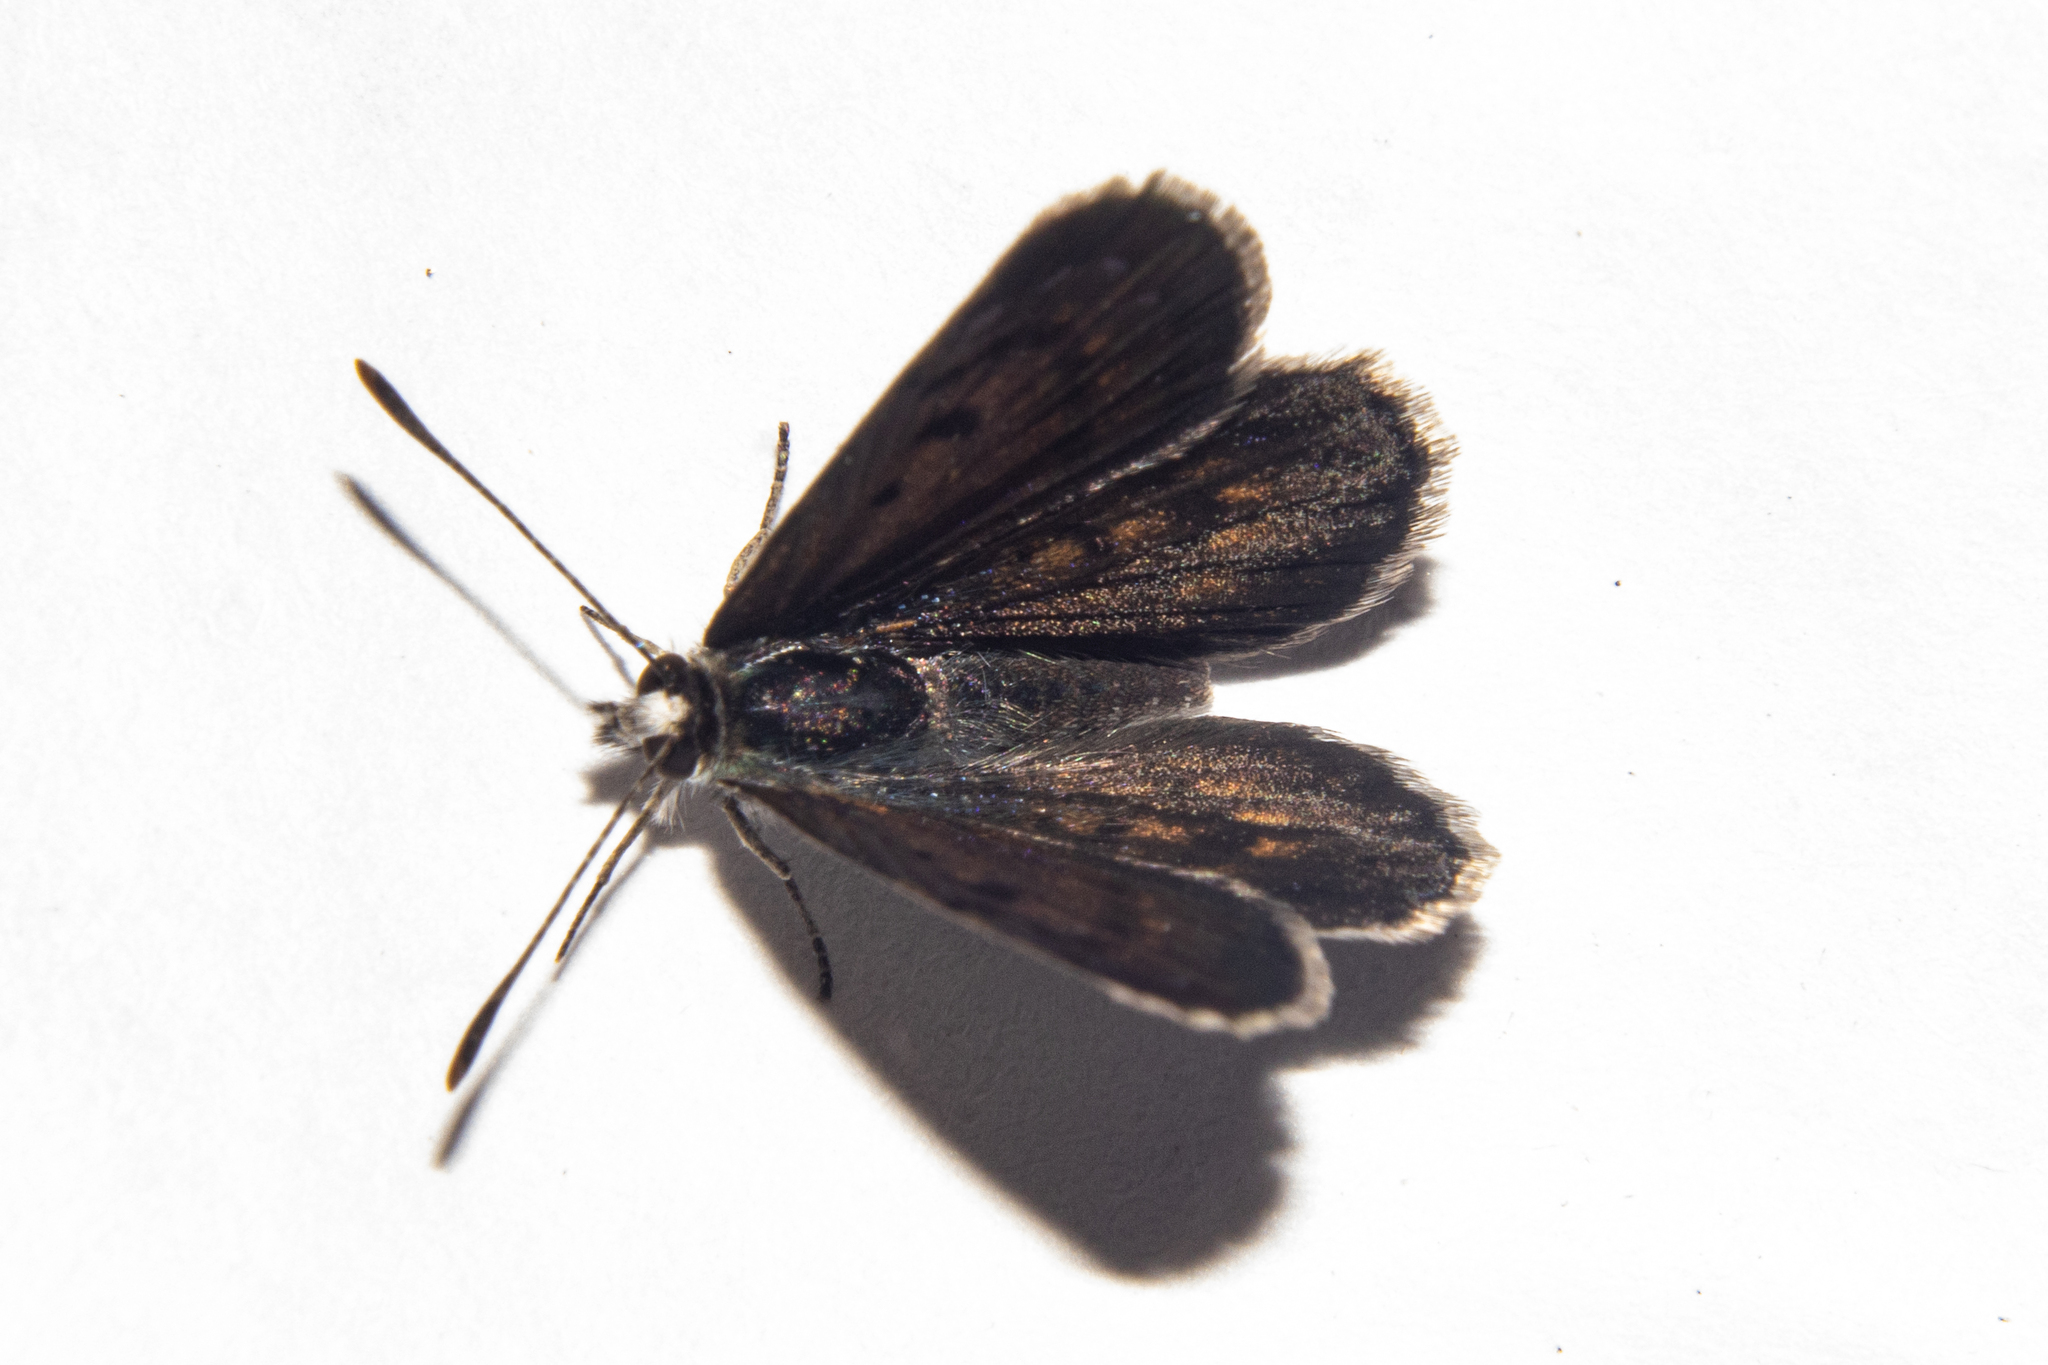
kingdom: Animalia
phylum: Arthropoda
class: Insecta
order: Lepidoptera
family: Lycaenidae
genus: Lycaena
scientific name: Lycaena tama
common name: Canterbury alpine boulder copper
